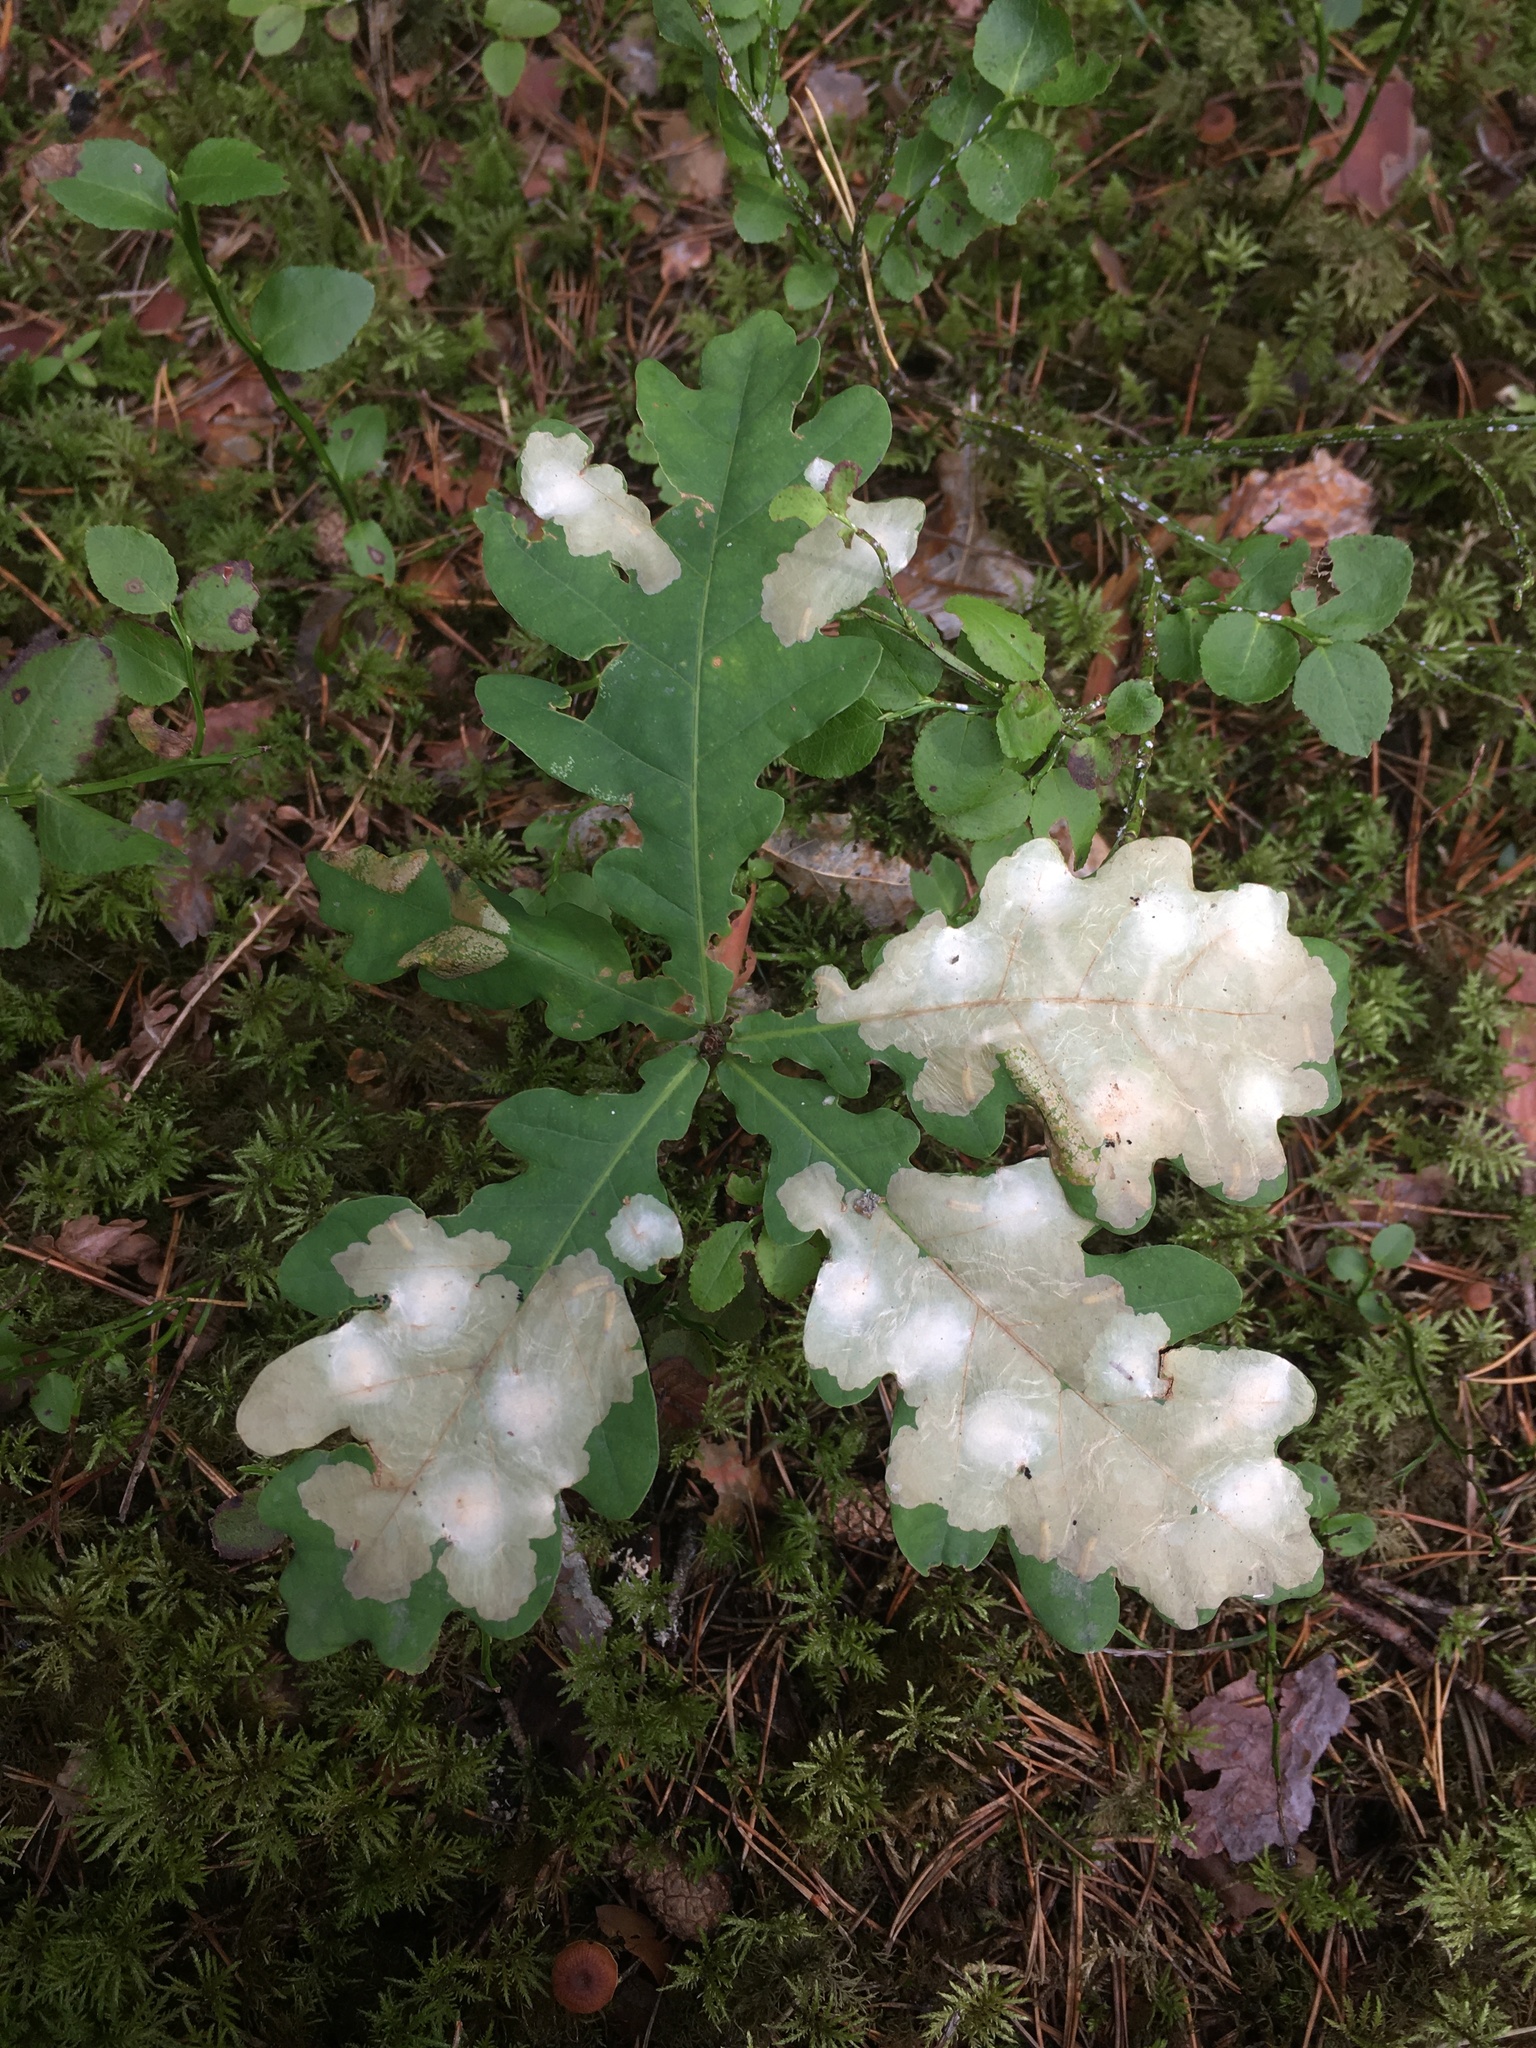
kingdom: Animalia
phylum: Arthropoda
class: Insecta
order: Lepidoptera
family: Tischeriidae
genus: Tischeria
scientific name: Tischeria ekebladella
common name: Oak carl
